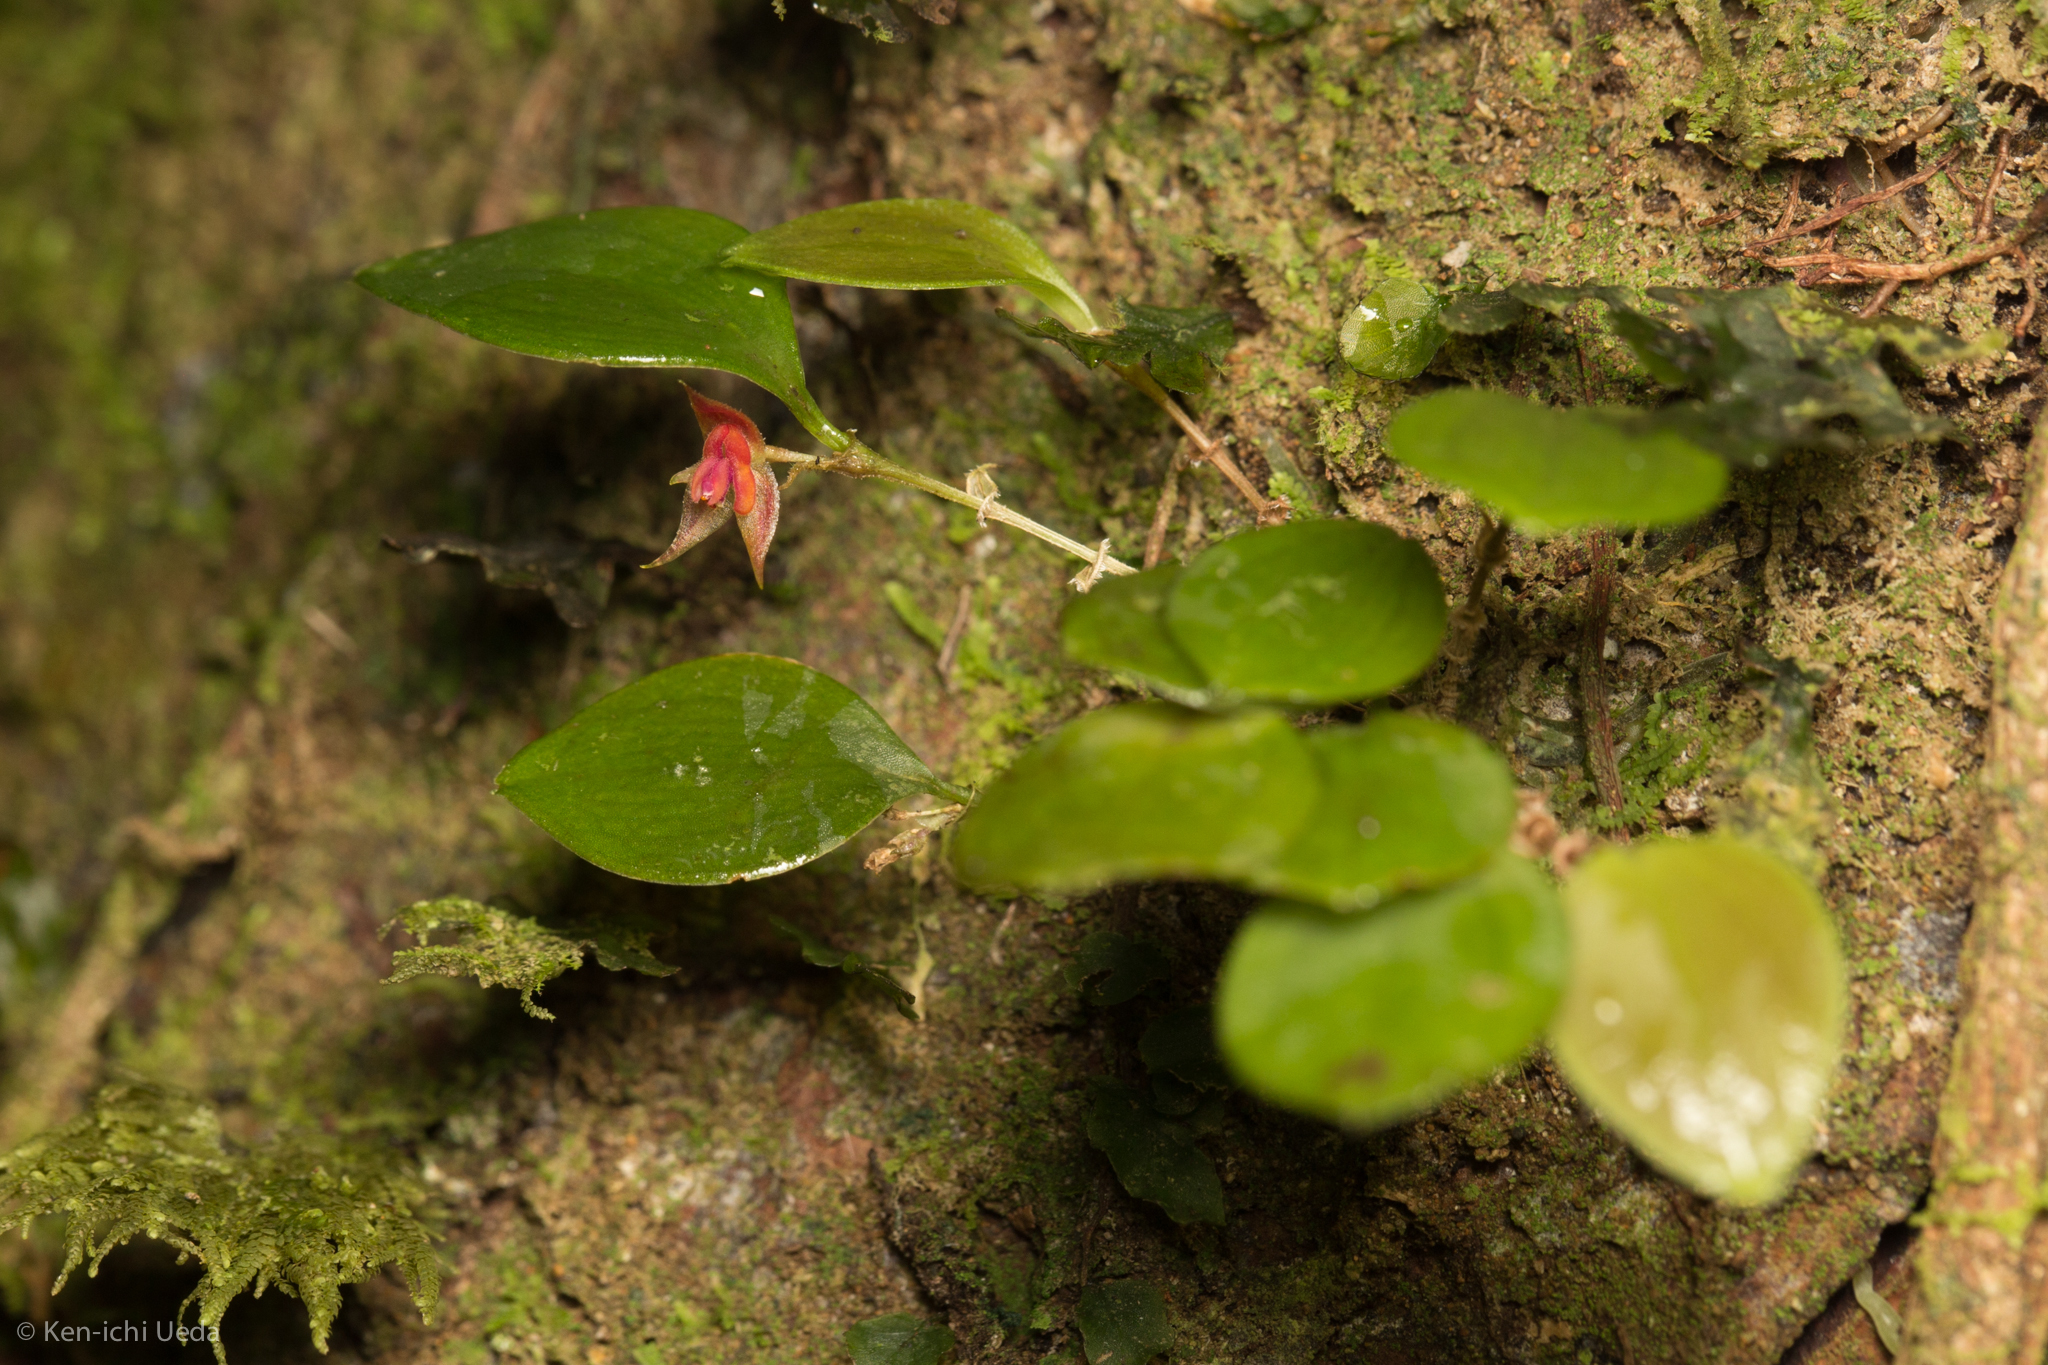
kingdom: Plantae
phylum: Tracheophyta
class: Liliopsida
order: Asparagales
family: Orchidaceae
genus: Lepanthes
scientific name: Lepanthes mentosa
